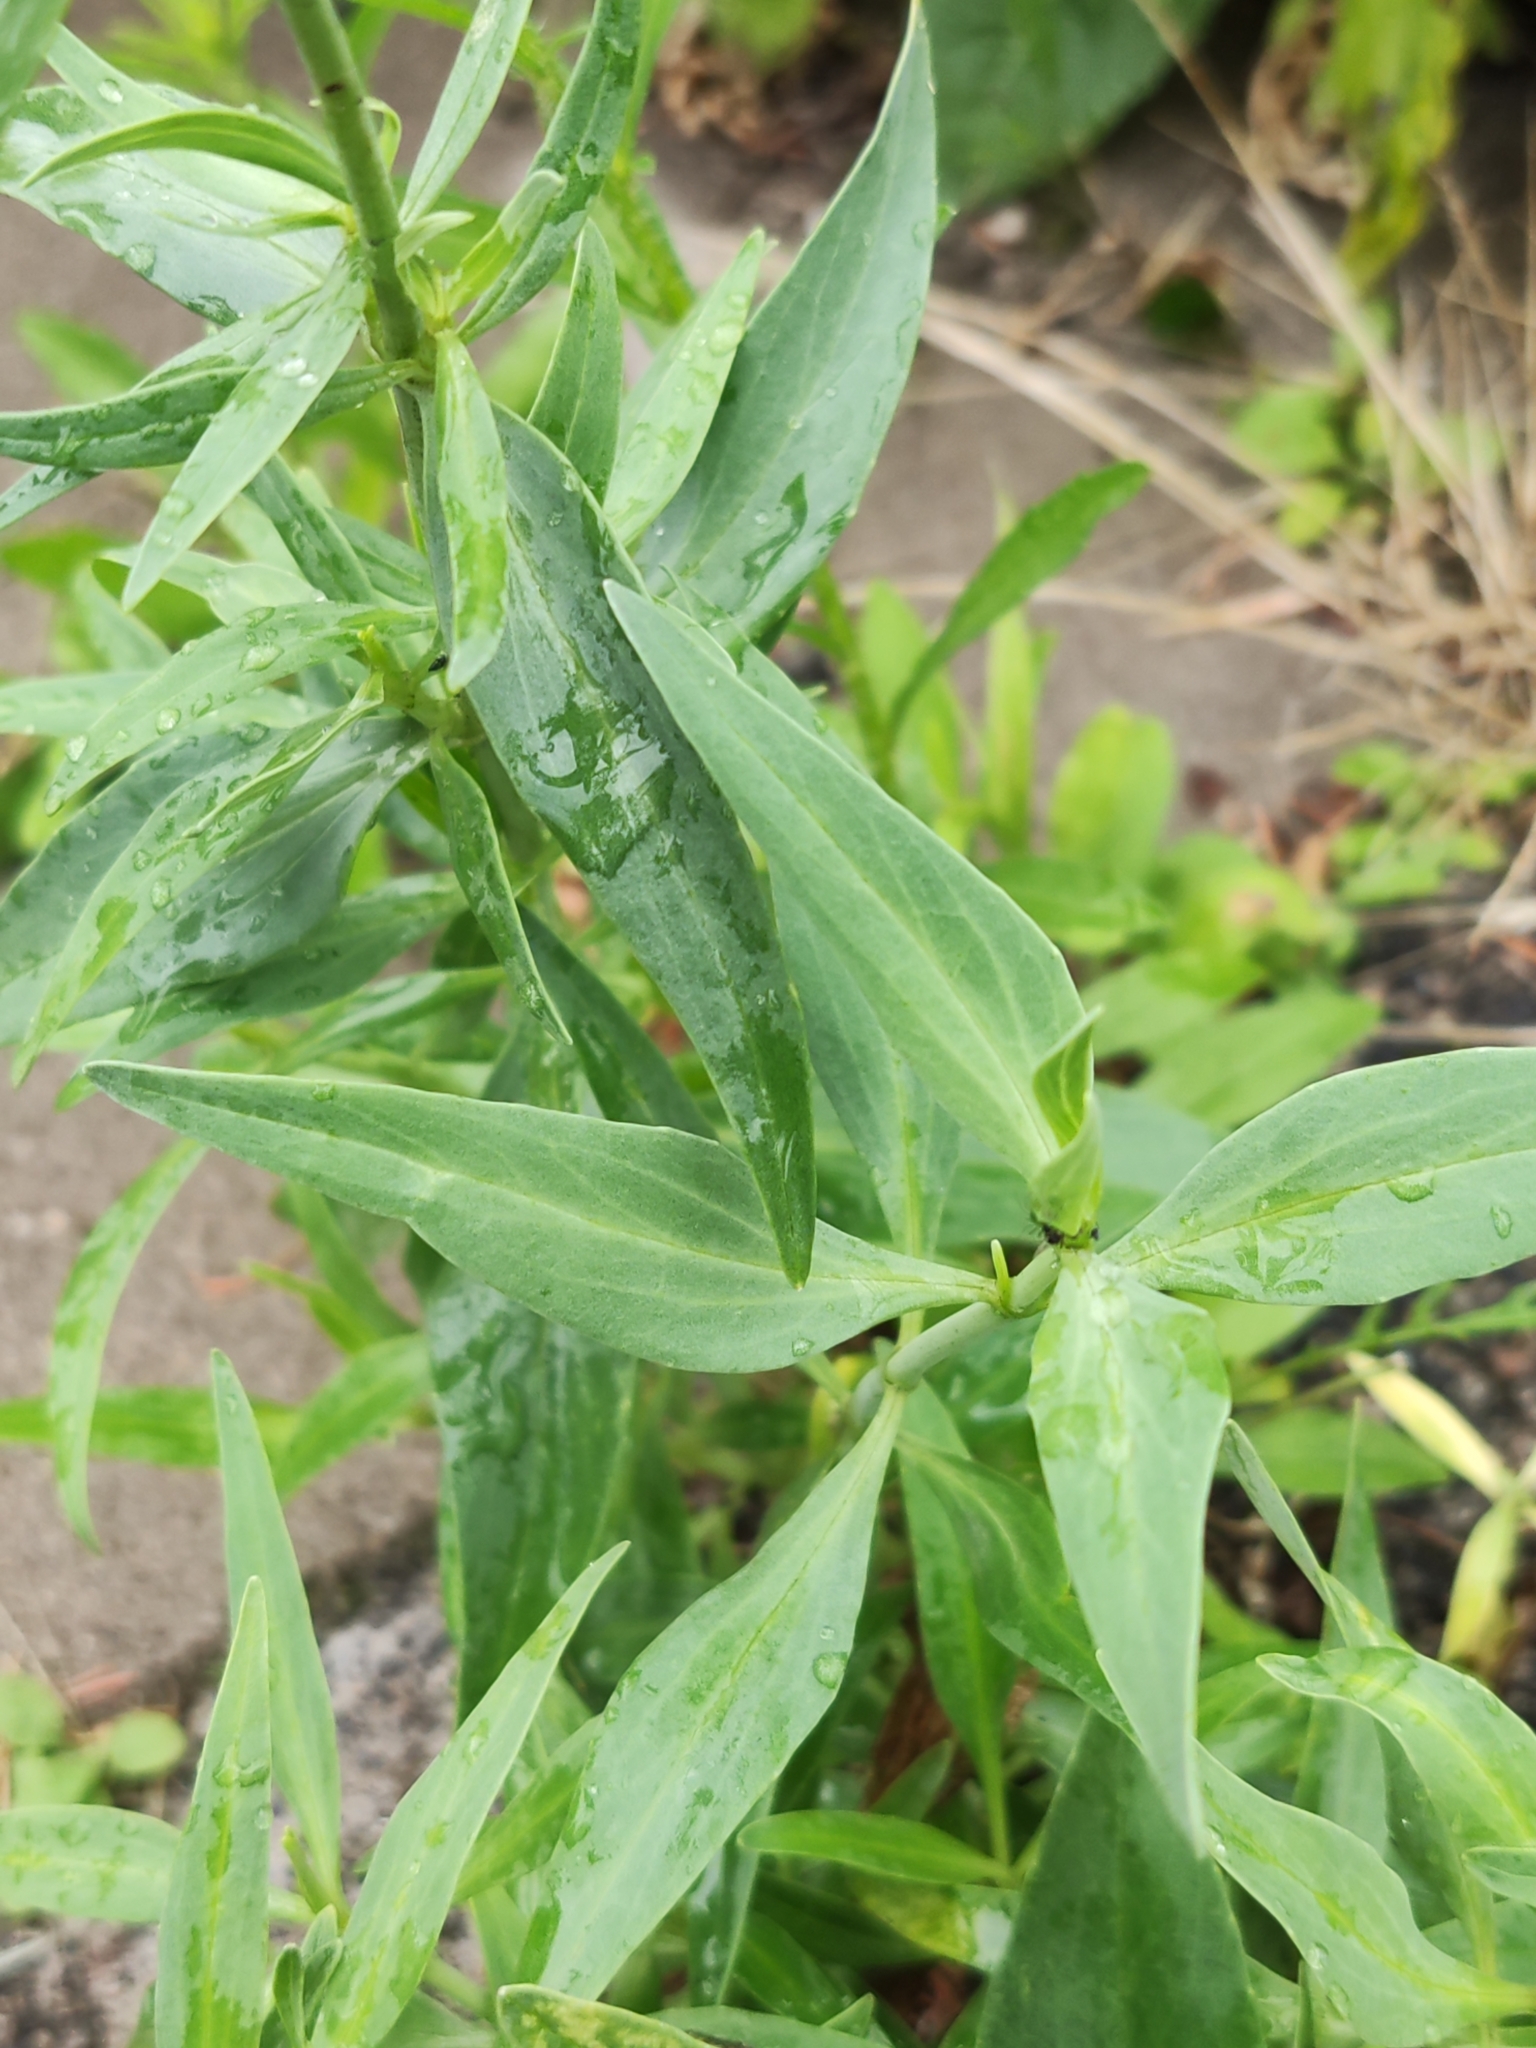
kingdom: Plantae
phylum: Tracheophyta
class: Magnoliopsida
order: Dipsacales
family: Caprifoliaceae
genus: Centranthus
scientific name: Centranthus ruber
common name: Red valerian
